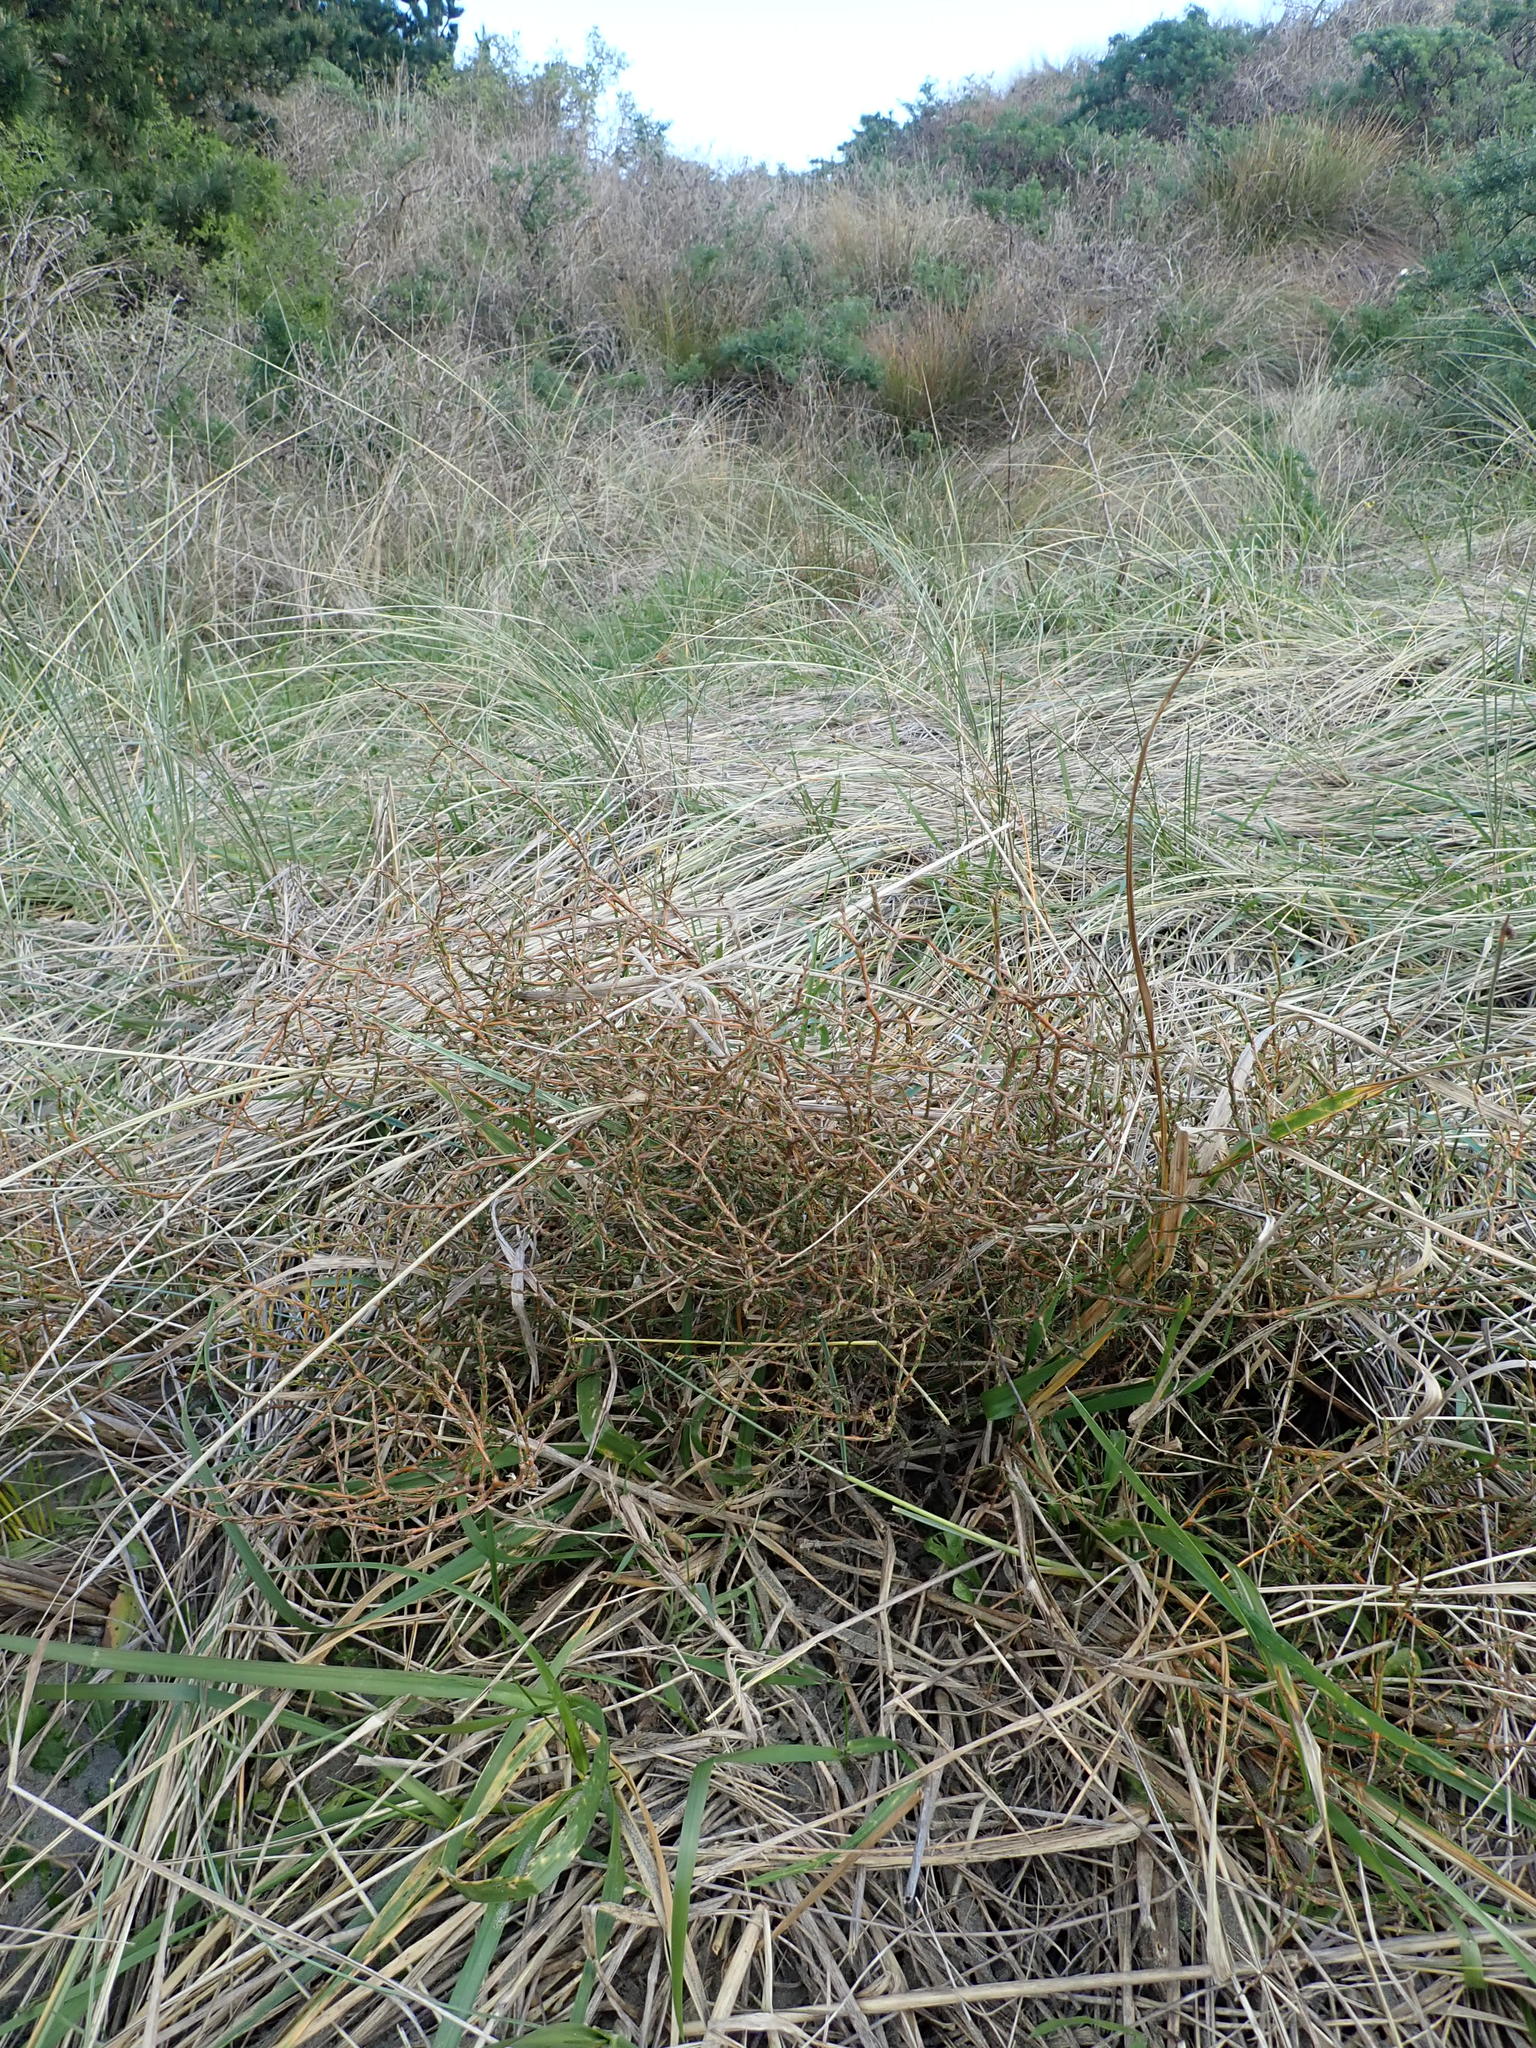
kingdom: Plantae
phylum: Tracheophyta
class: Magnoliopsida
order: Gentianales
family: Rubiaceae
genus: Coprosma
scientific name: Coprosma acerosa
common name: Sand coprosma
